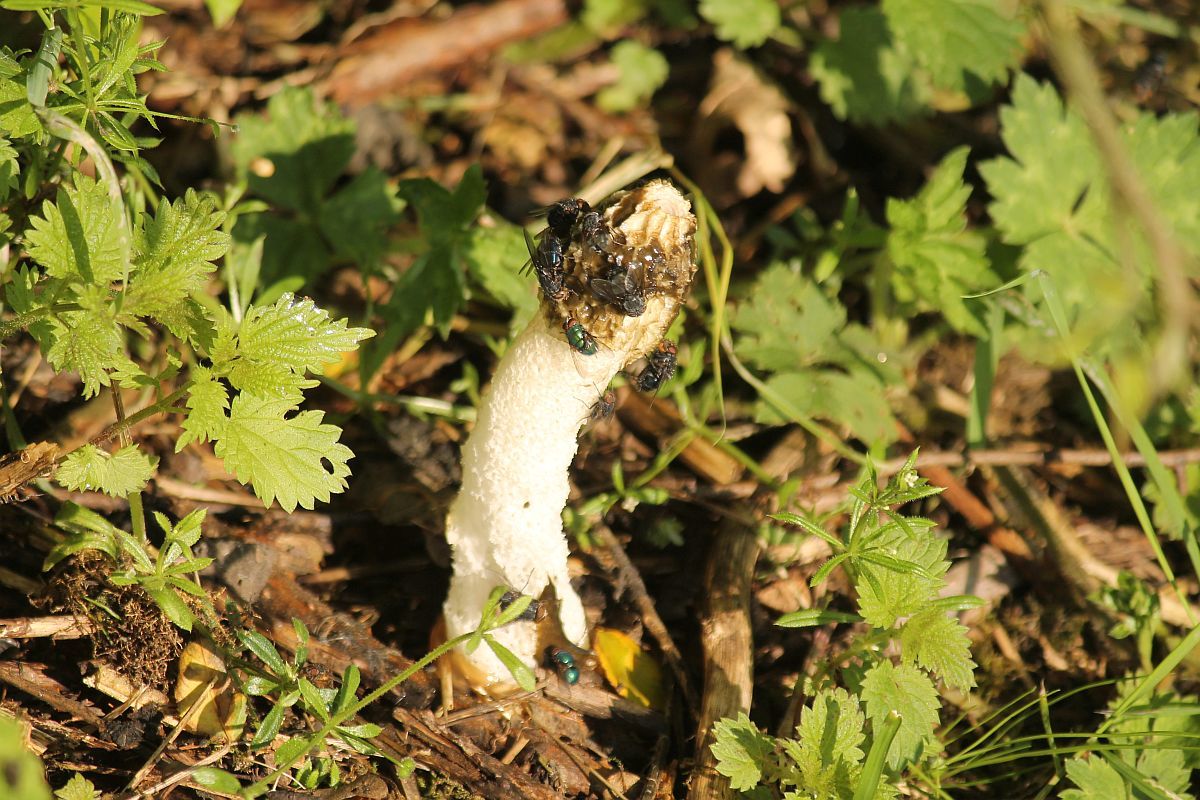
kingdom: Fungi
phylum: Basidiomycota
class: Agaricomycetes
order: Phallales
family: Phallaceae
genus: Phallus
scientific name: Phallus impudicus
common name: Common stinkhorn
